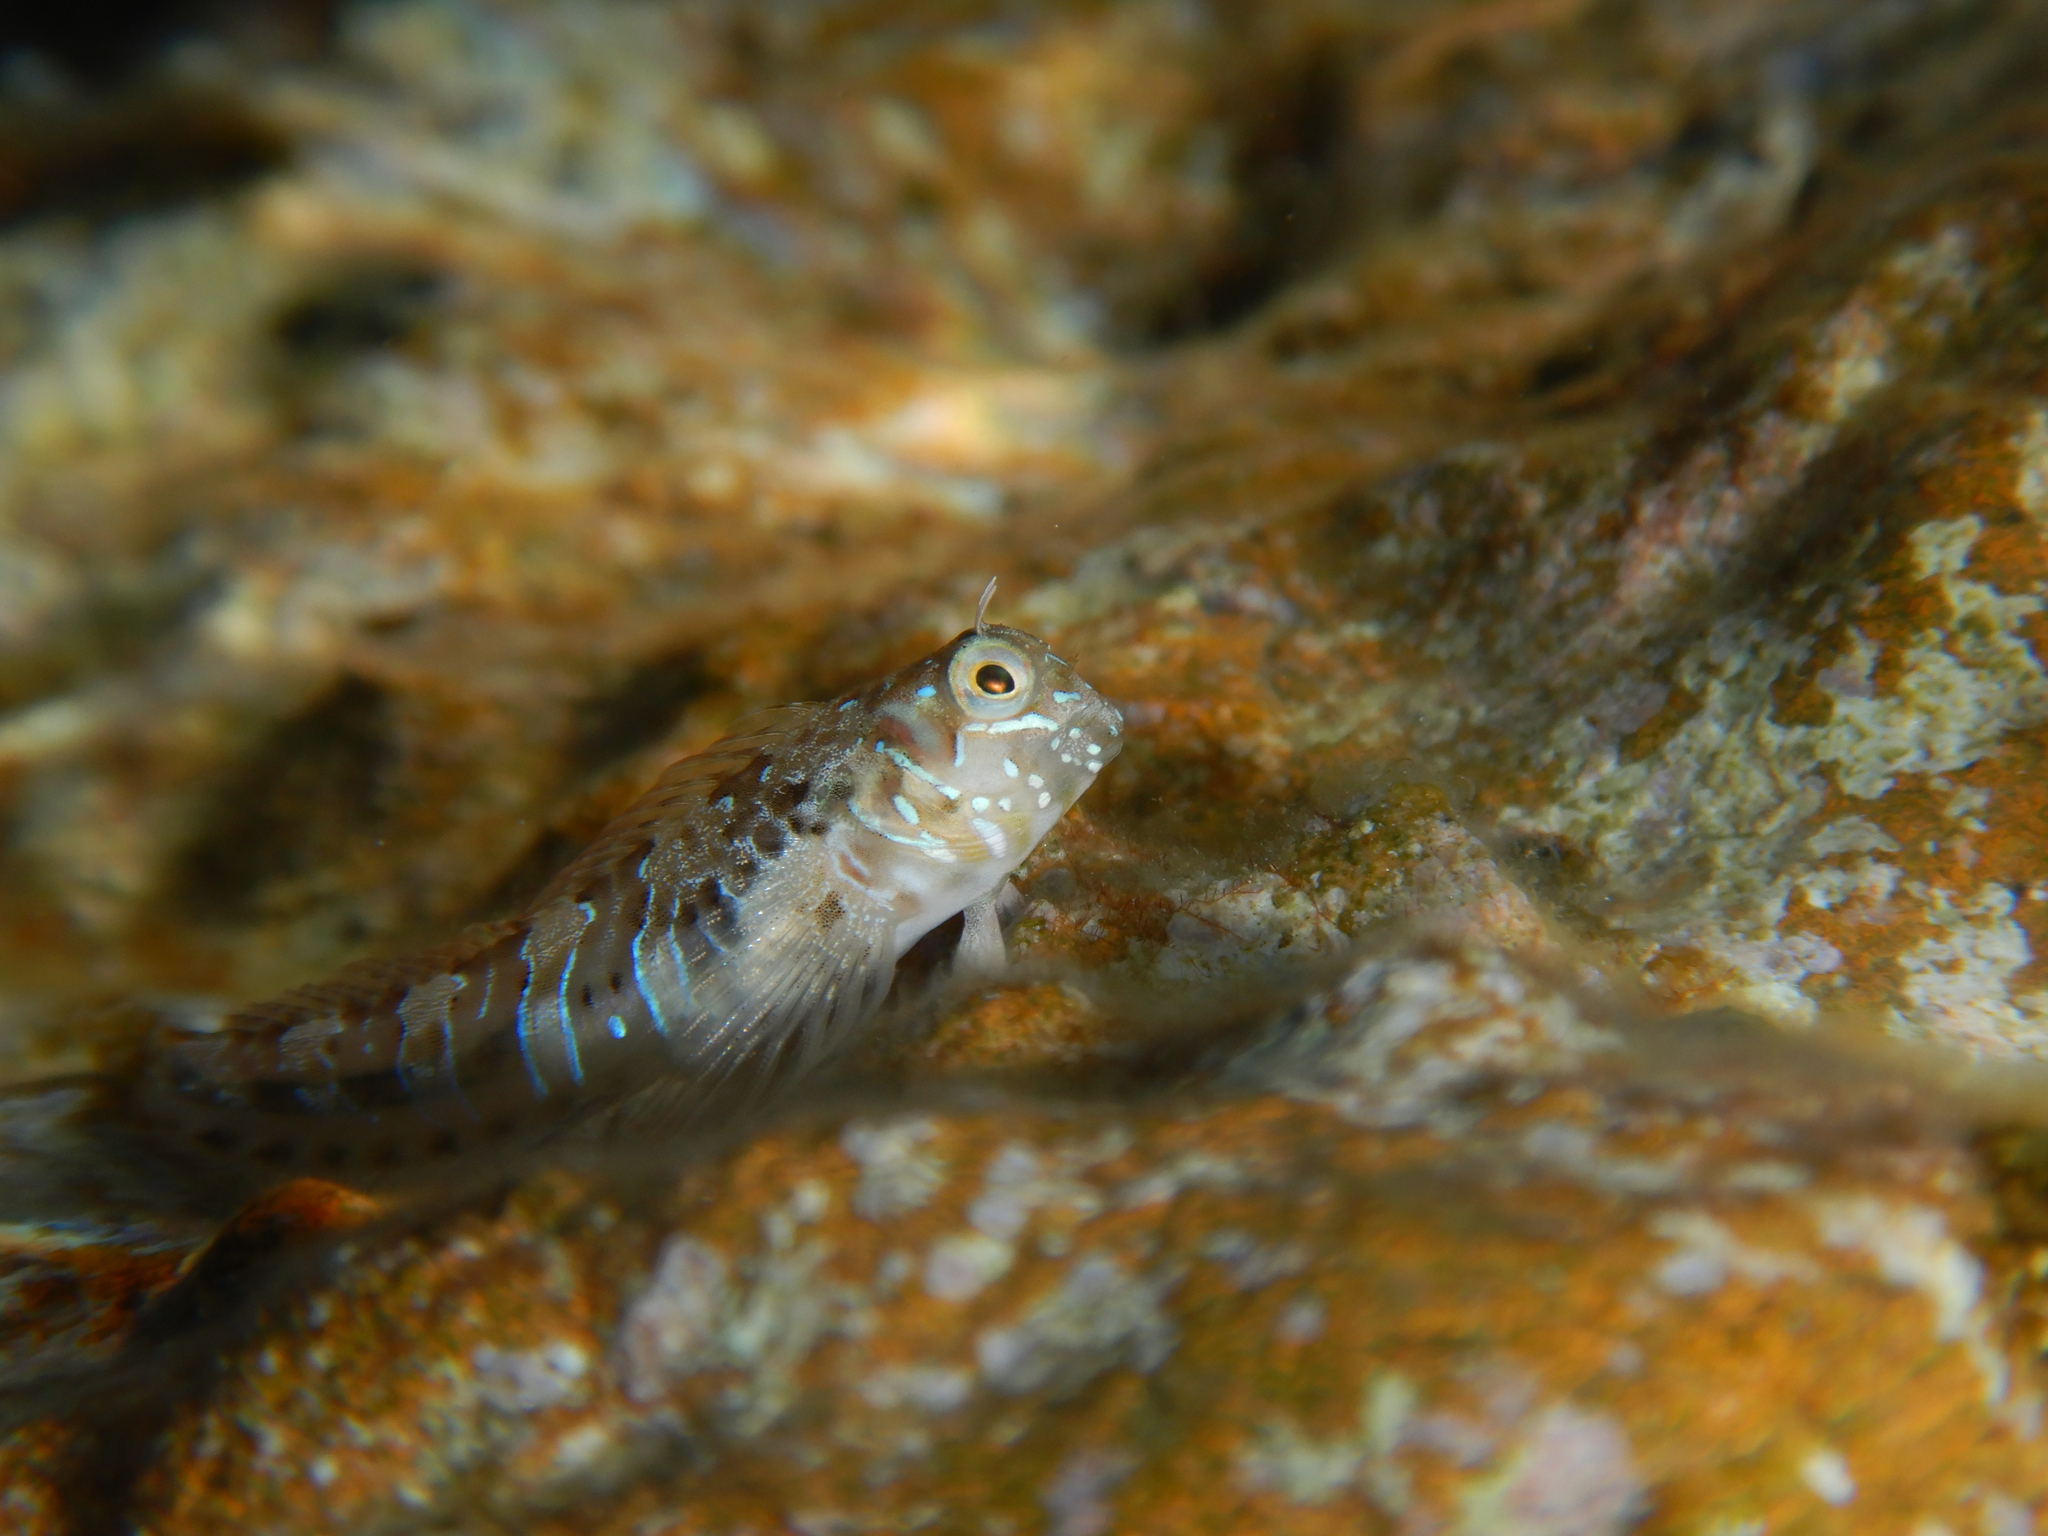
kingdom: Animalia
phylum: Chordata
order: Perciformes
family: Blenniidae
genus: Aidablennius
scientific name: Aidablennius sphynx
